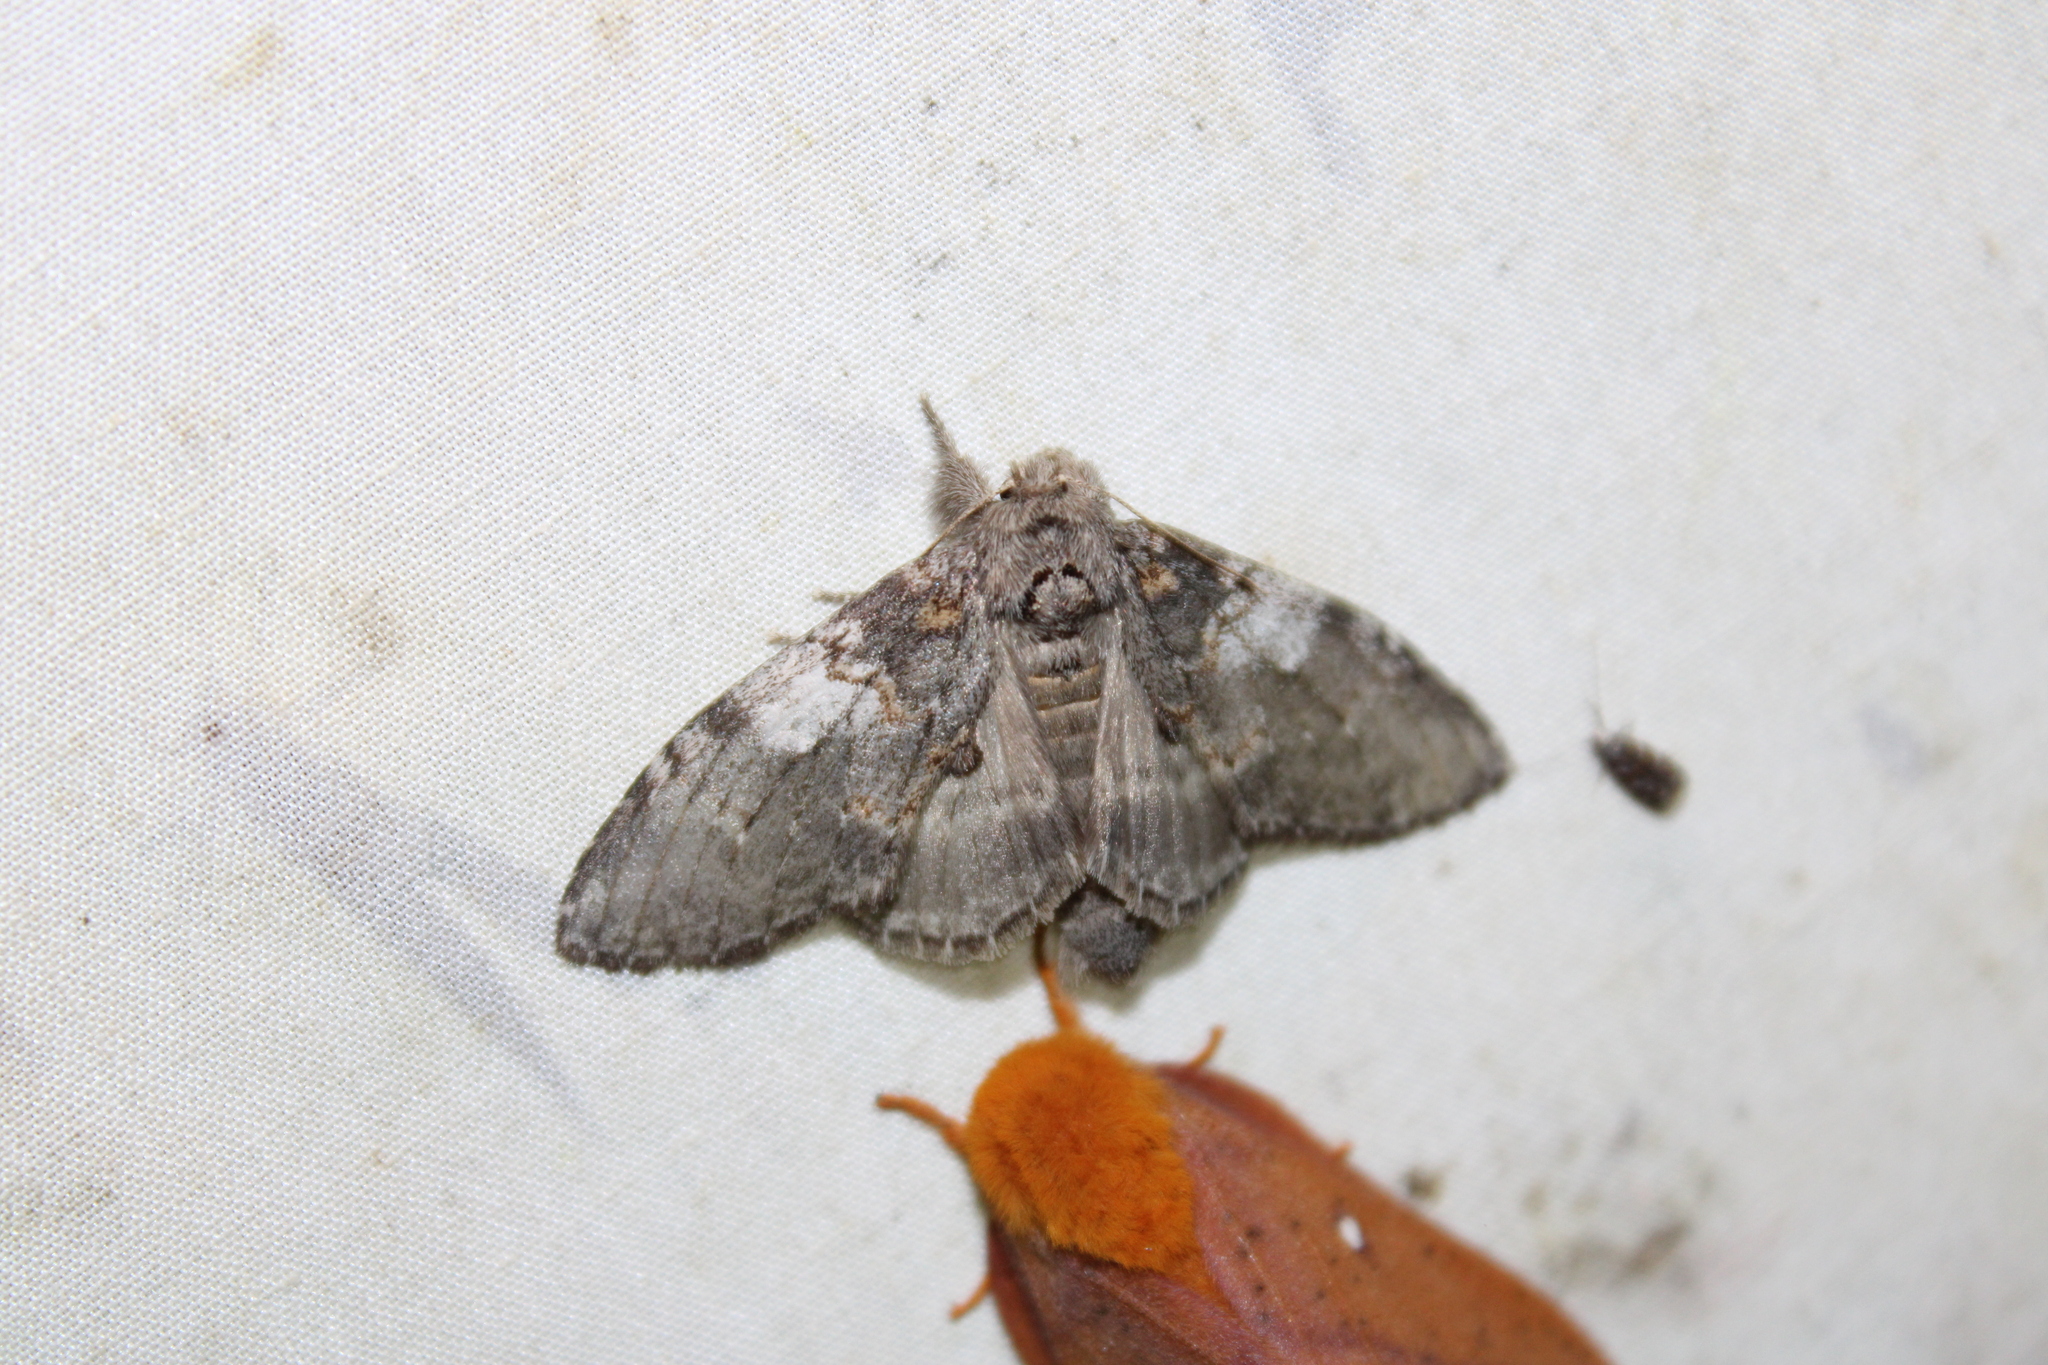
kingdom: Animalia
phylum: Arthropoda
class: Insecta
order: Lepidoptera
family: Notodontidae
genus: Peridea
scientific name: Peridea angulosa
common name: Angulose prominent
